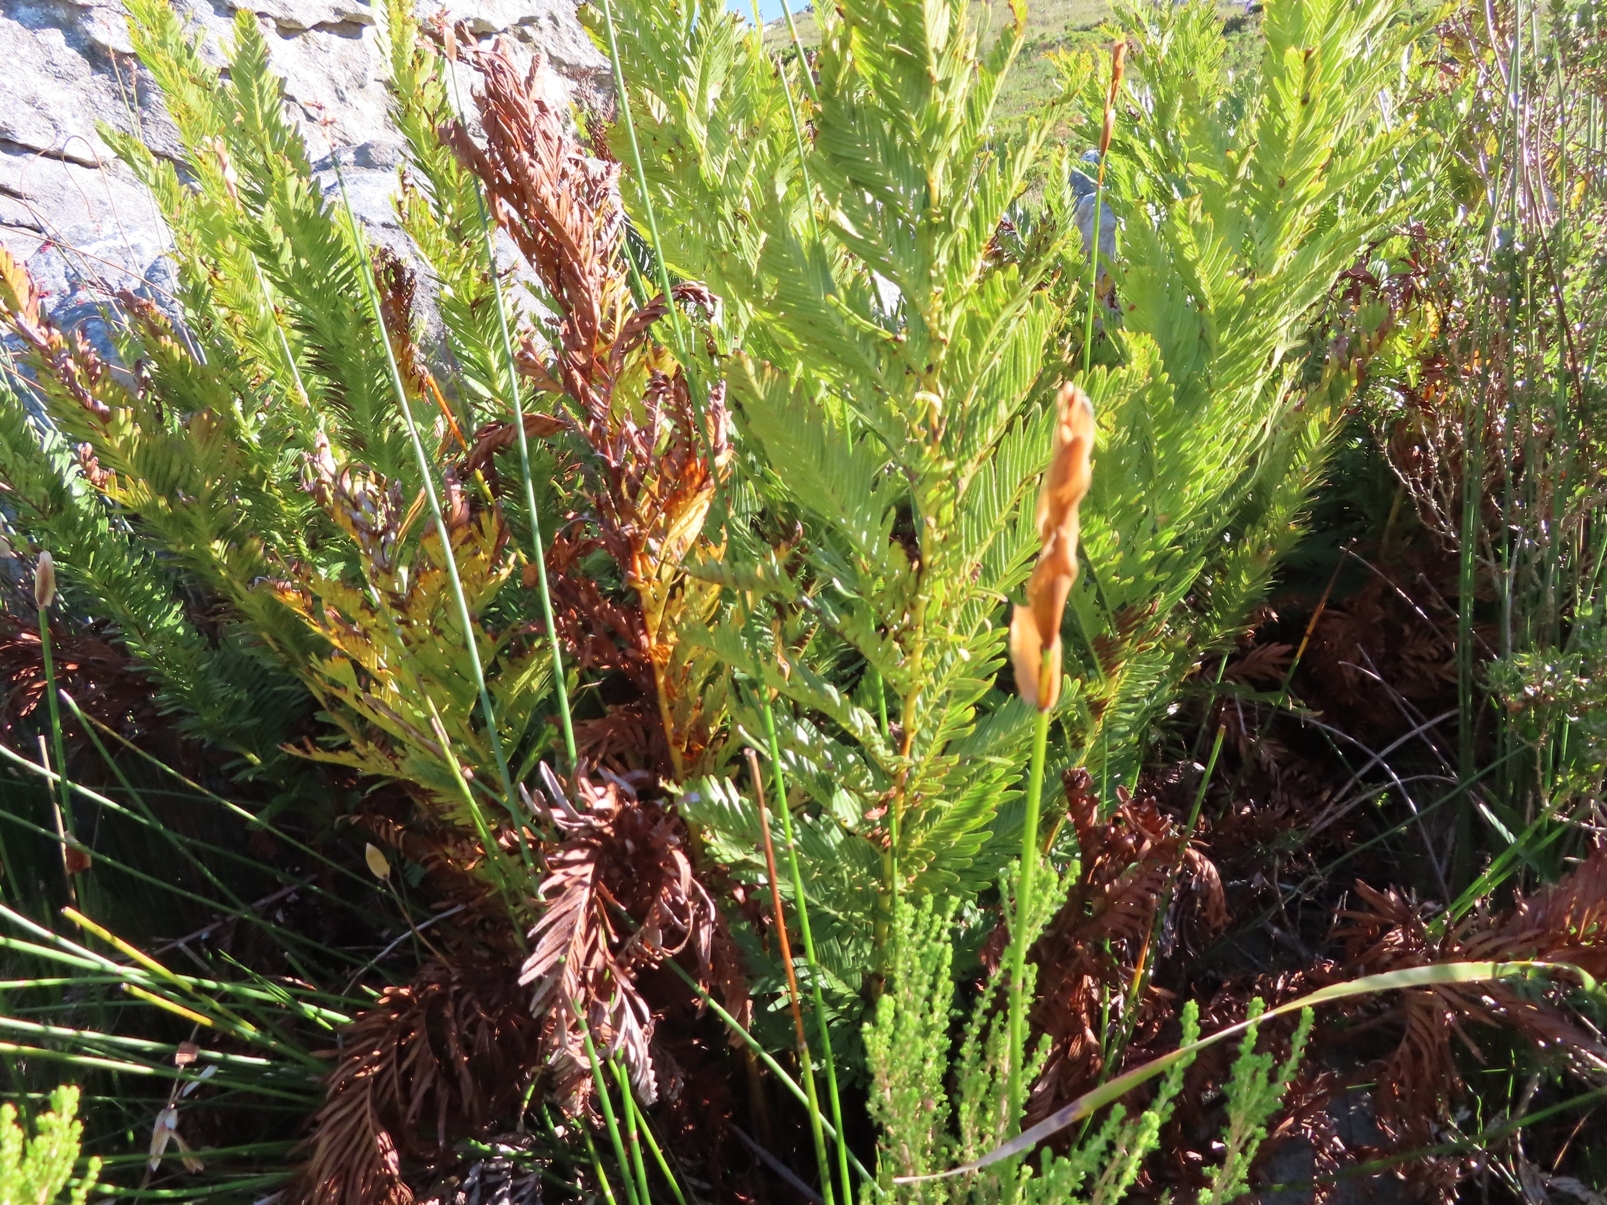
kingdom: Plantae
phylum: Tracheophyta
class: Polypodiopsida
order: Osmundales
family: Osmundaceae
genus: Todea
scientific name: Todea barbara
